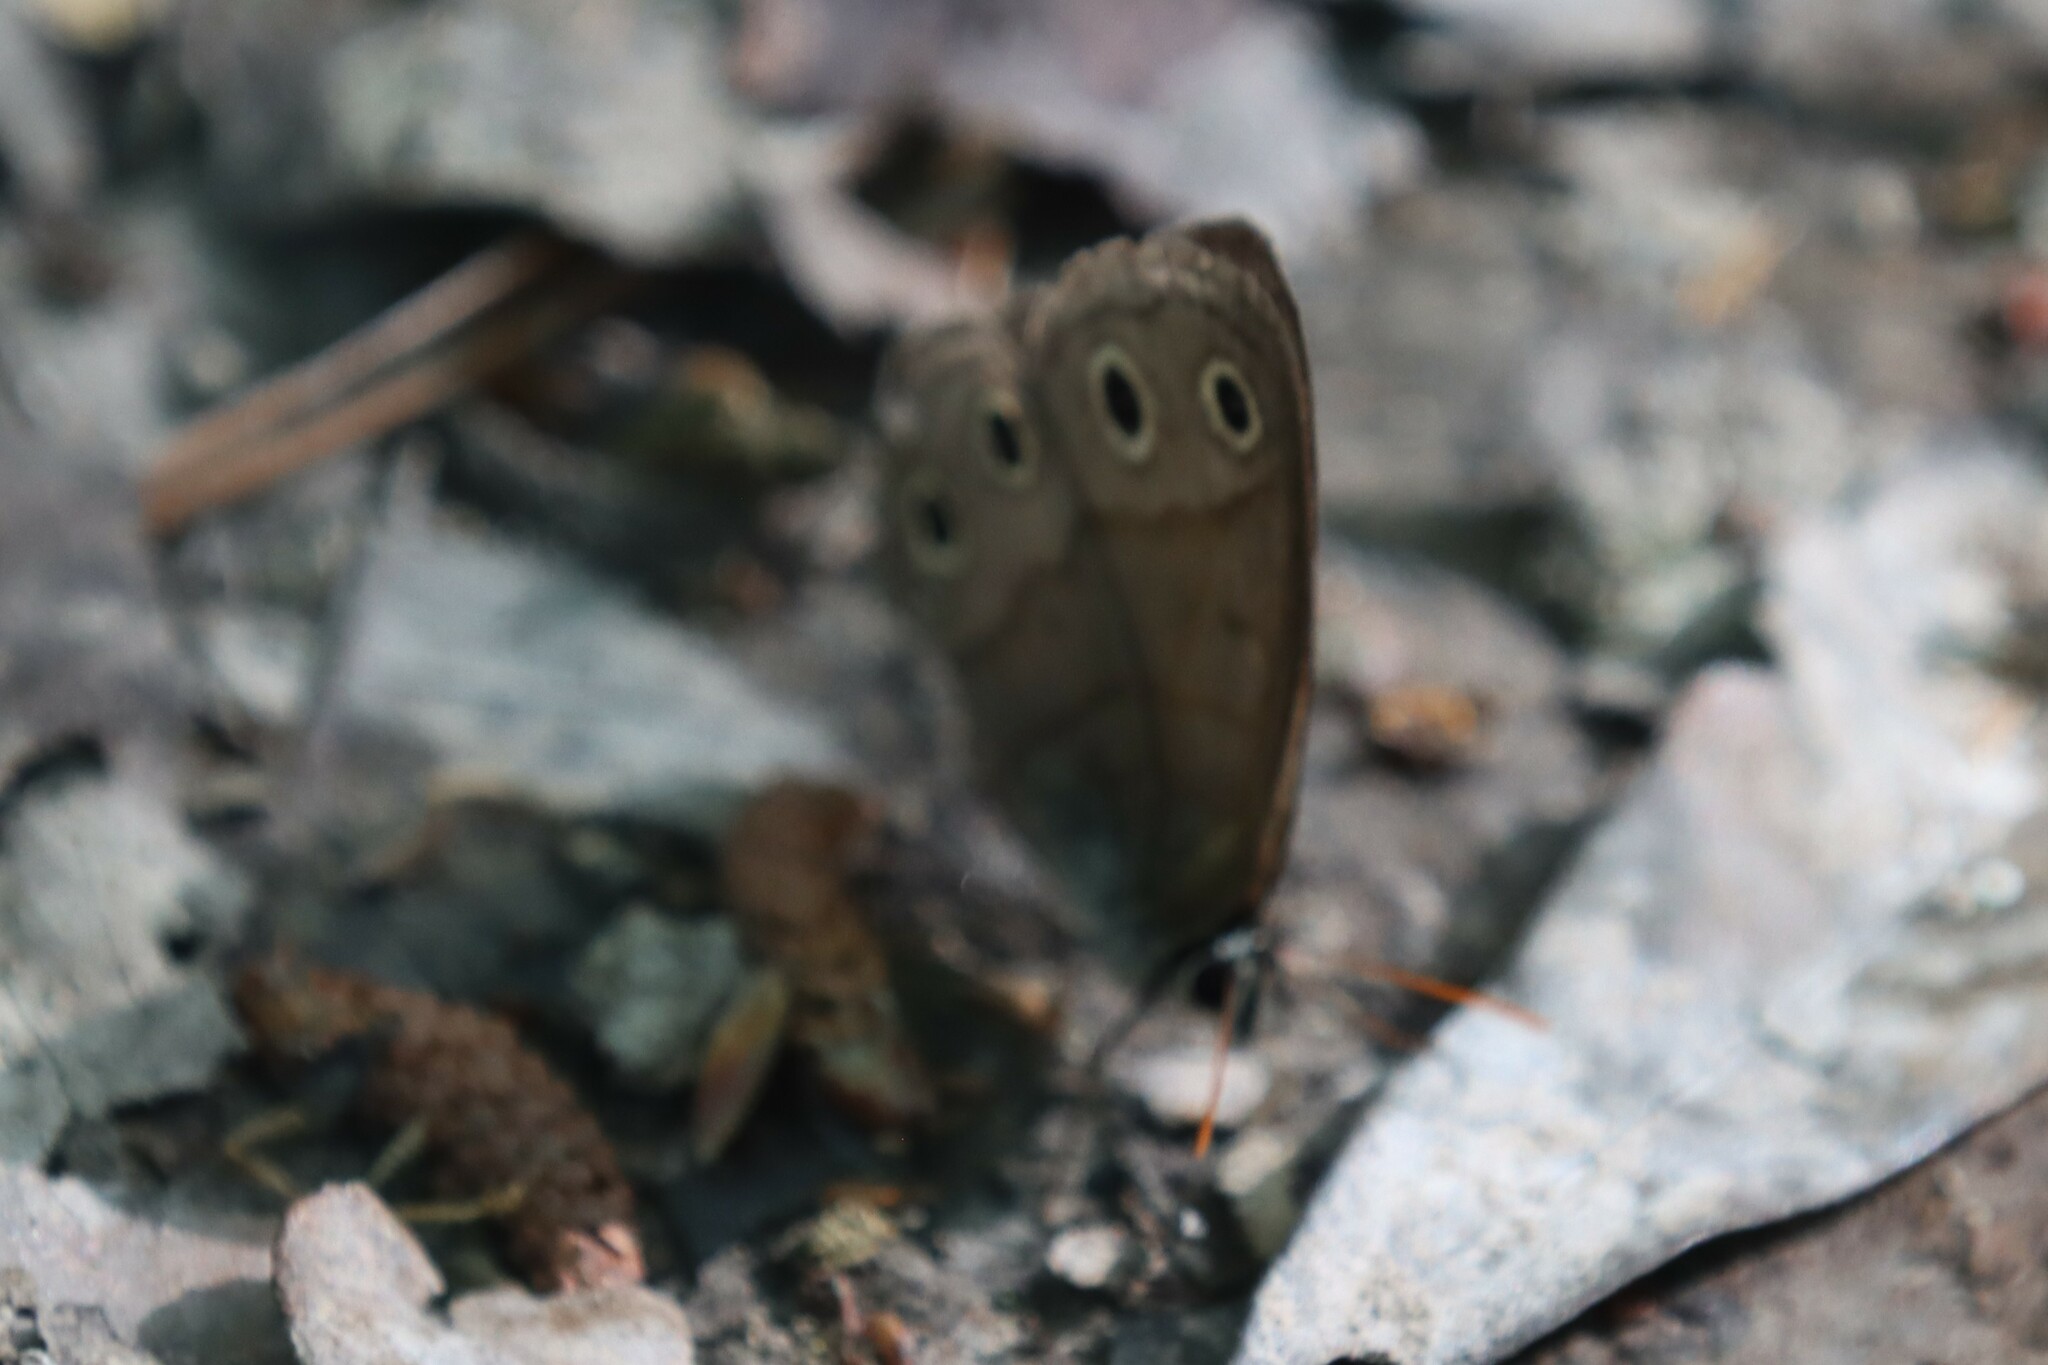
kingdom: Animalia
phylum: Arthropoda
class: Insecta
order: Lepidoptera
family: Nymphalidae
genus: Euptychia
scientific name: Euptychia cymela
